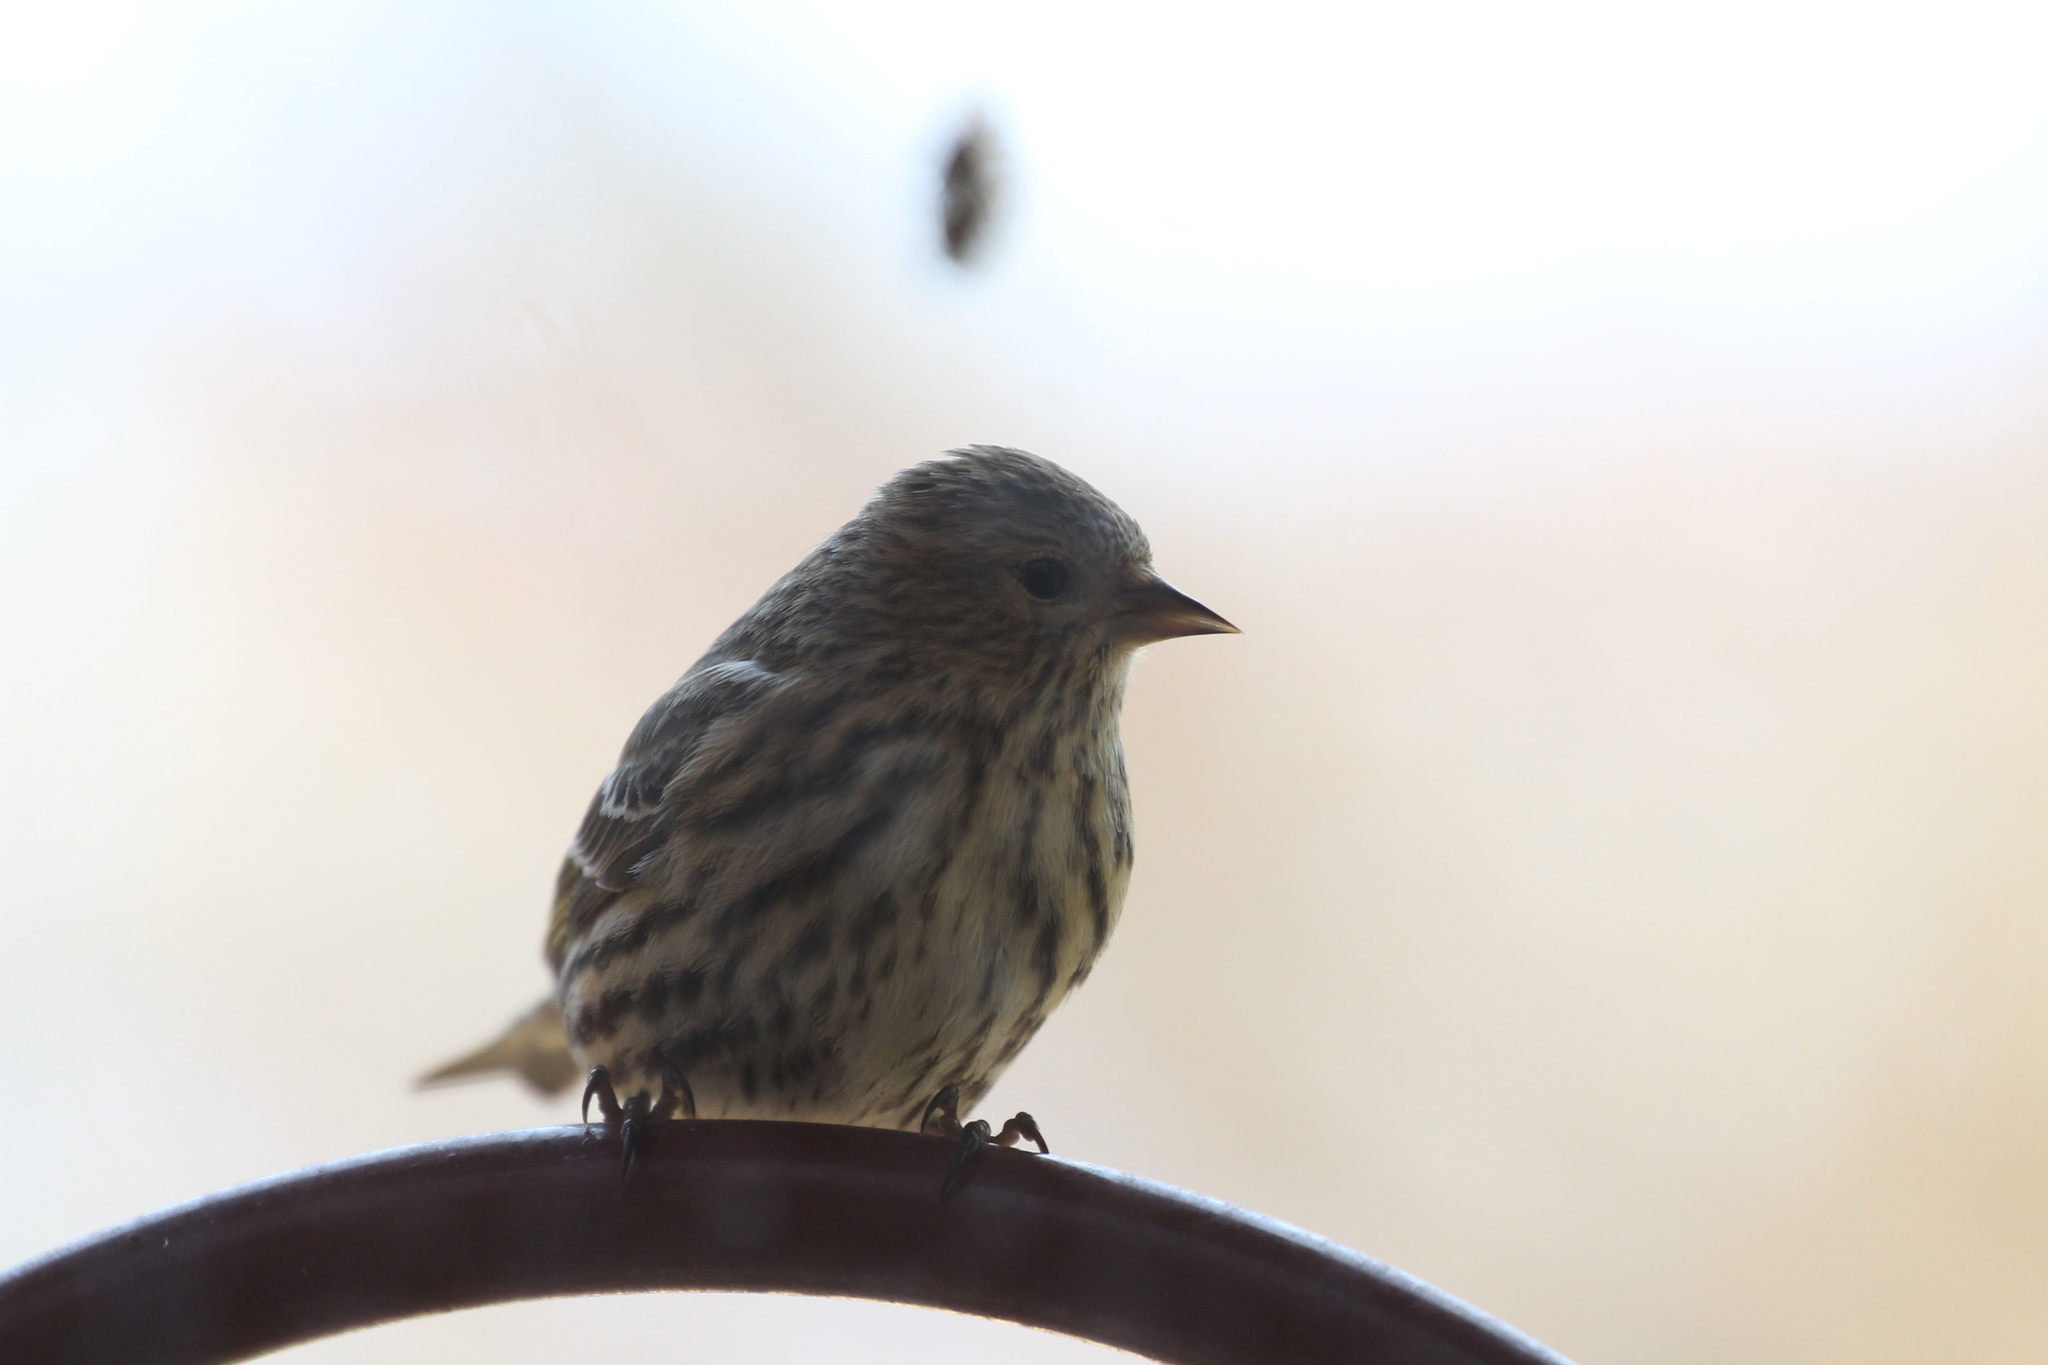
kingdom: Animalia
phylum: Chordata
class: Aves
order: Passeriformes
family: Fringillidae
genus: Spinus
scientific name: Spinus pinus
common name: Pine siskin
